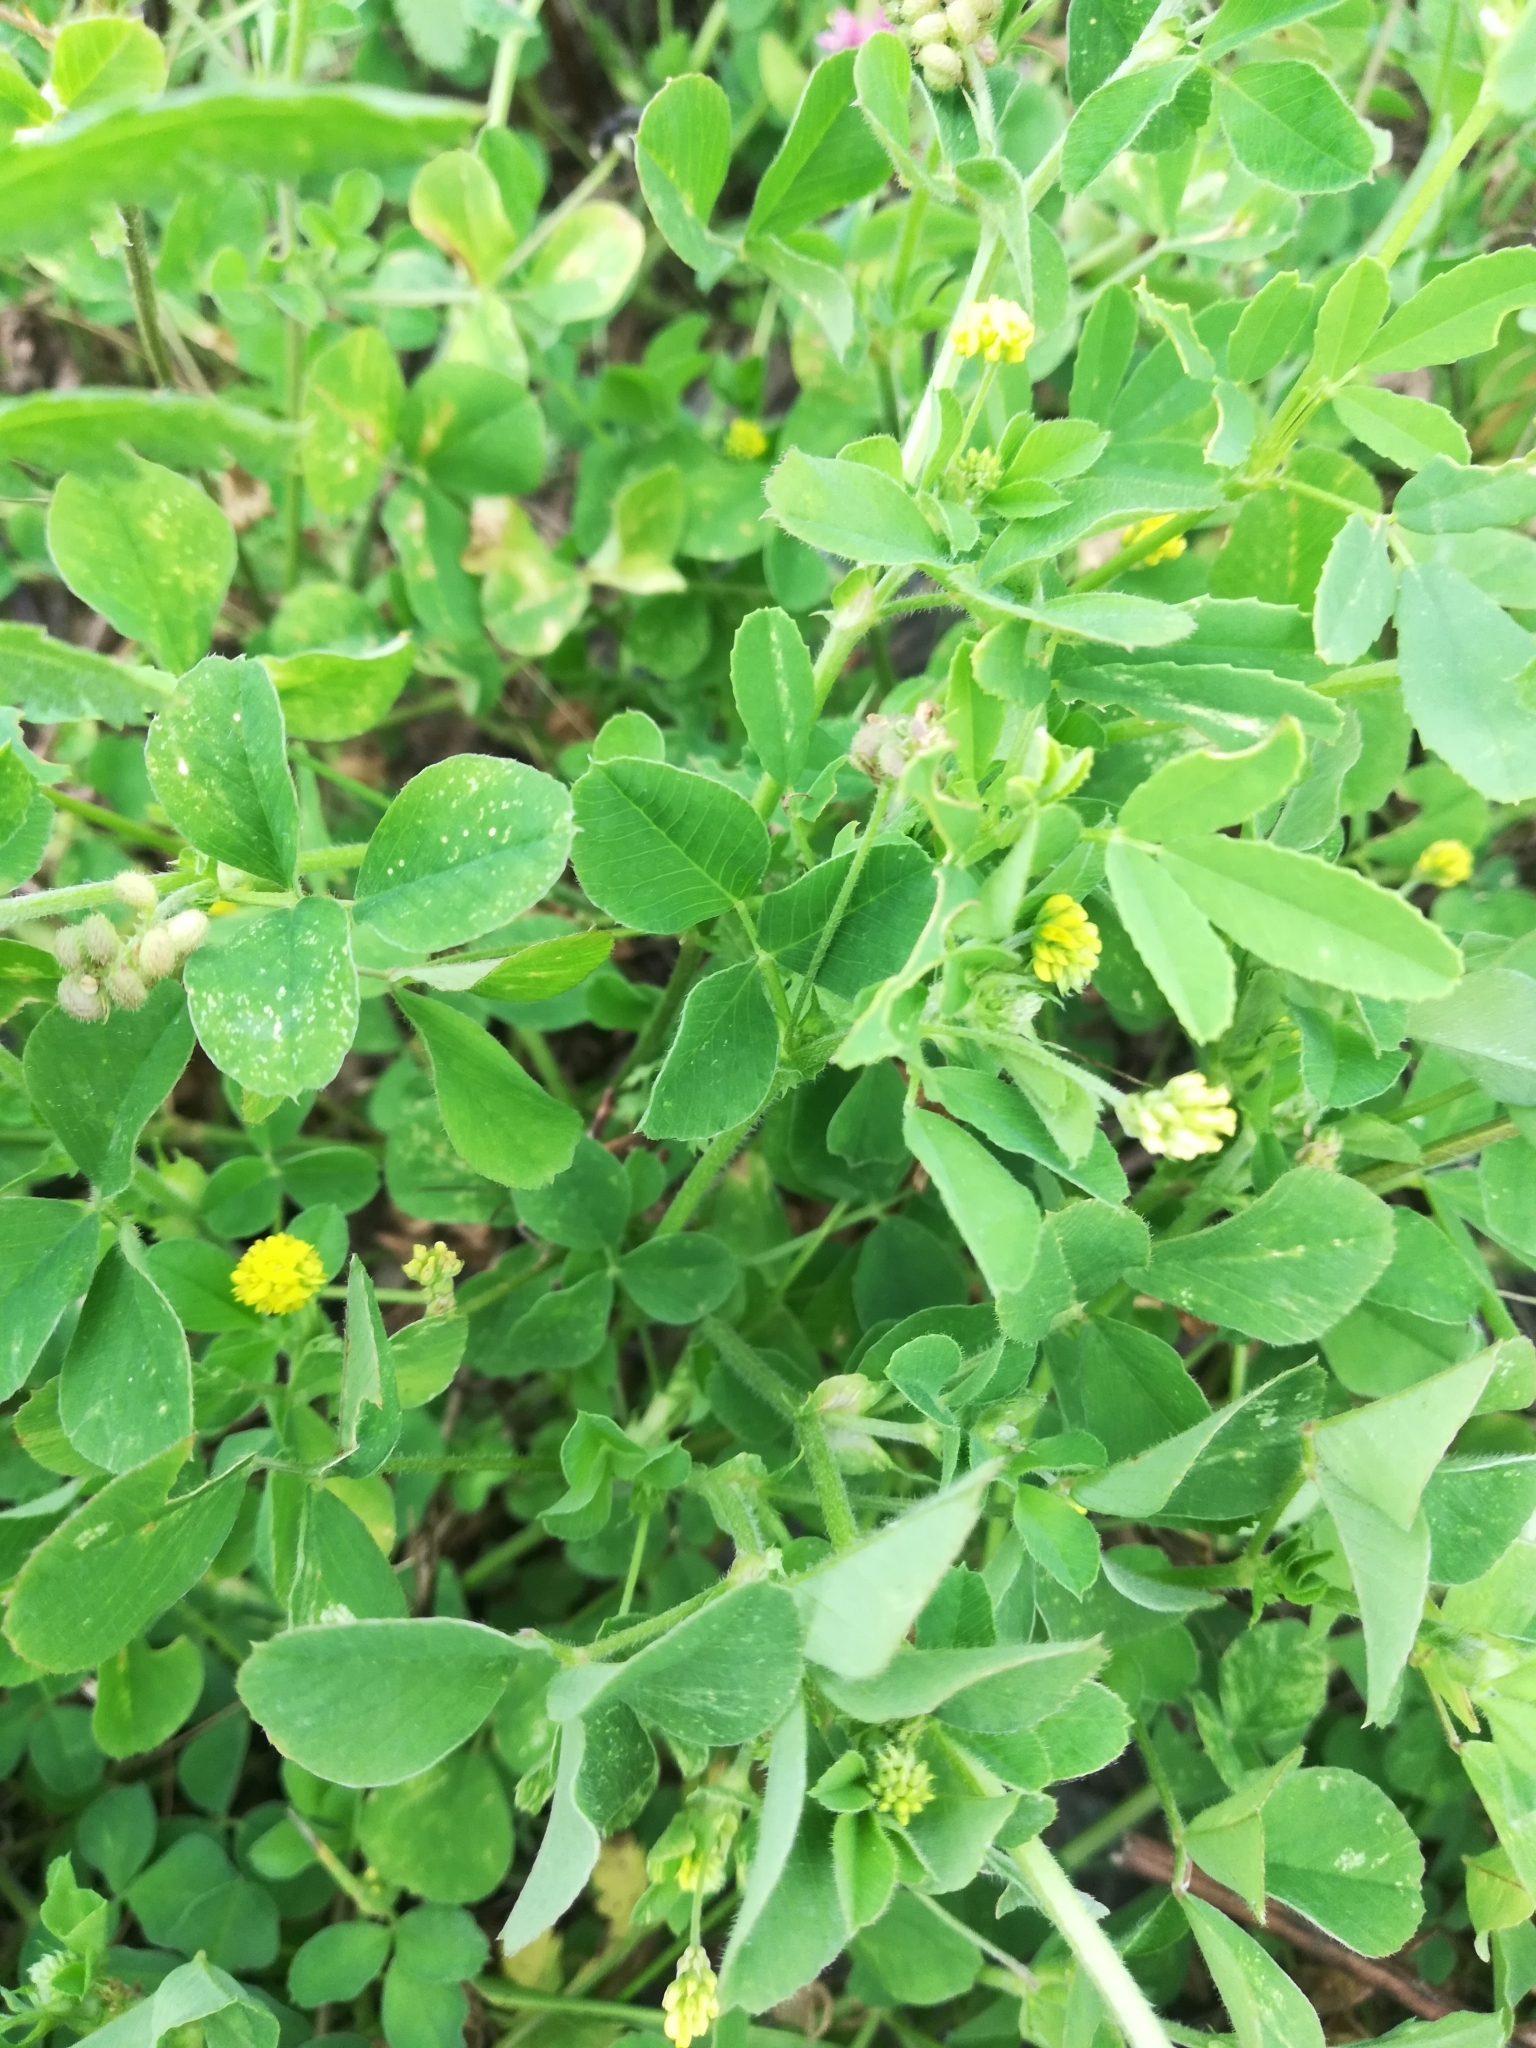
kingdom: Plantae
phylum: Tracheophyta
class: Magnoliopsida
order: Fabales
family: Fabaceae
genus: Medicago
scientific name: Medicago lupulina
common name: Black medick
